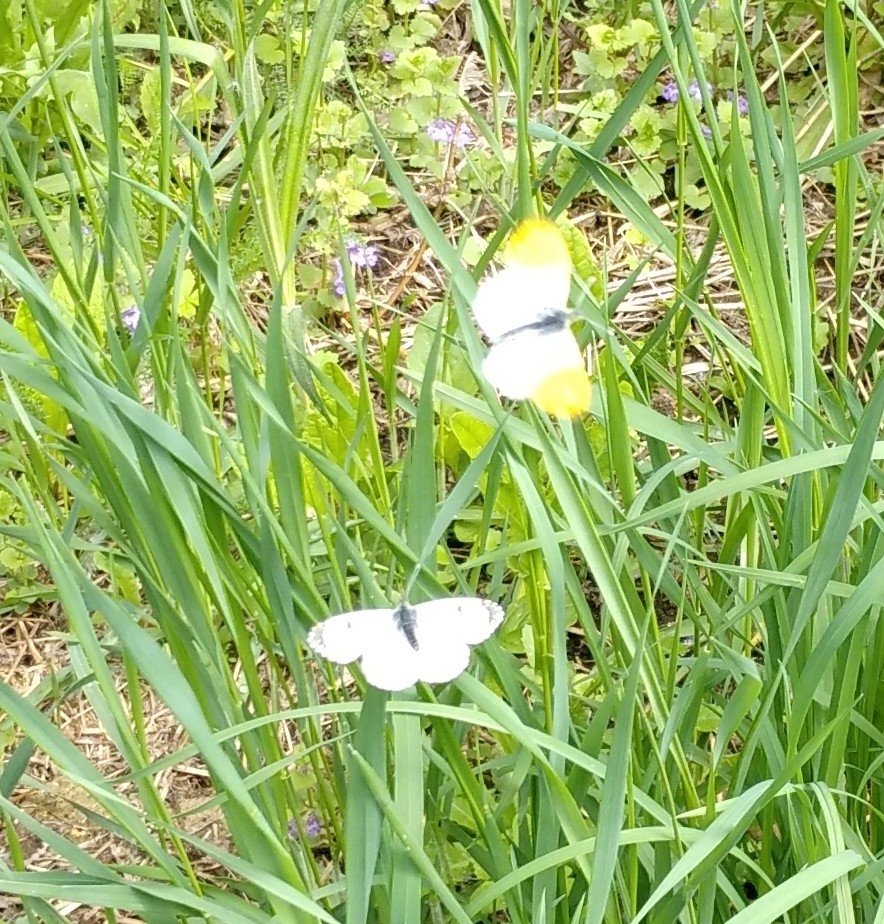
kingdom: Animalia
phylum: Arthropoda
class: Insecta
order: Lepidoptera
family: Pieridae
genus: Anthocharis
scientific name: Anthocharis cardamines
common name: Orange-tip
